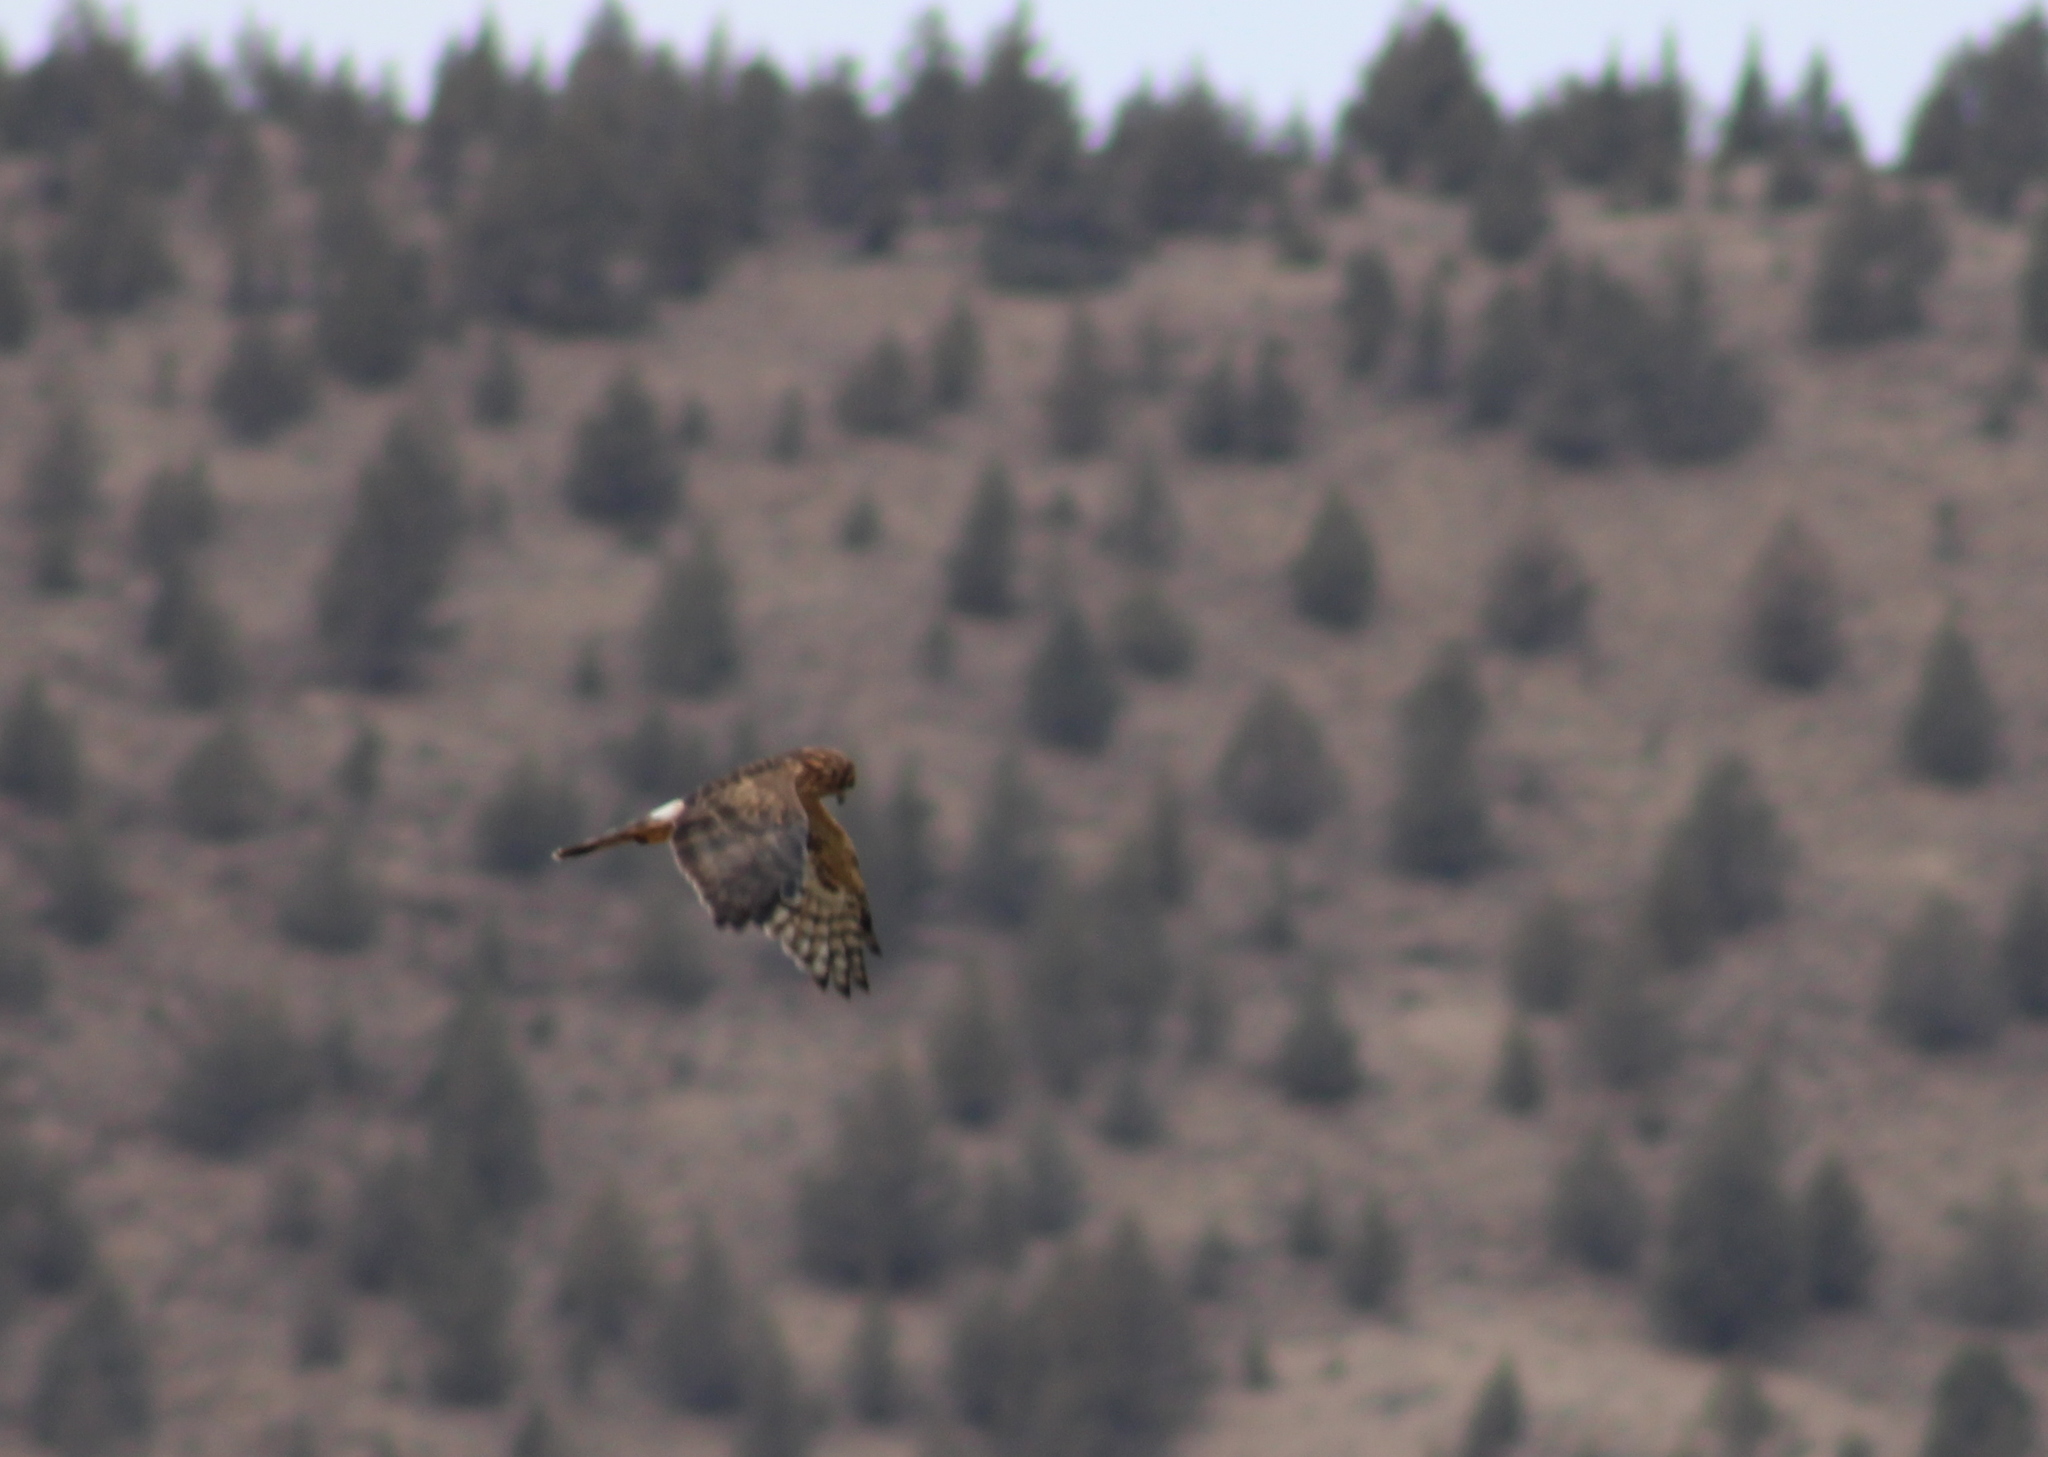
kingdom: Animalia
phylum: Chordata
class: Aves
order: Accipitriformes
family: Accipitridae
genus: Circus
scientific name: Circus cyaneus
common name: Hen harrier
